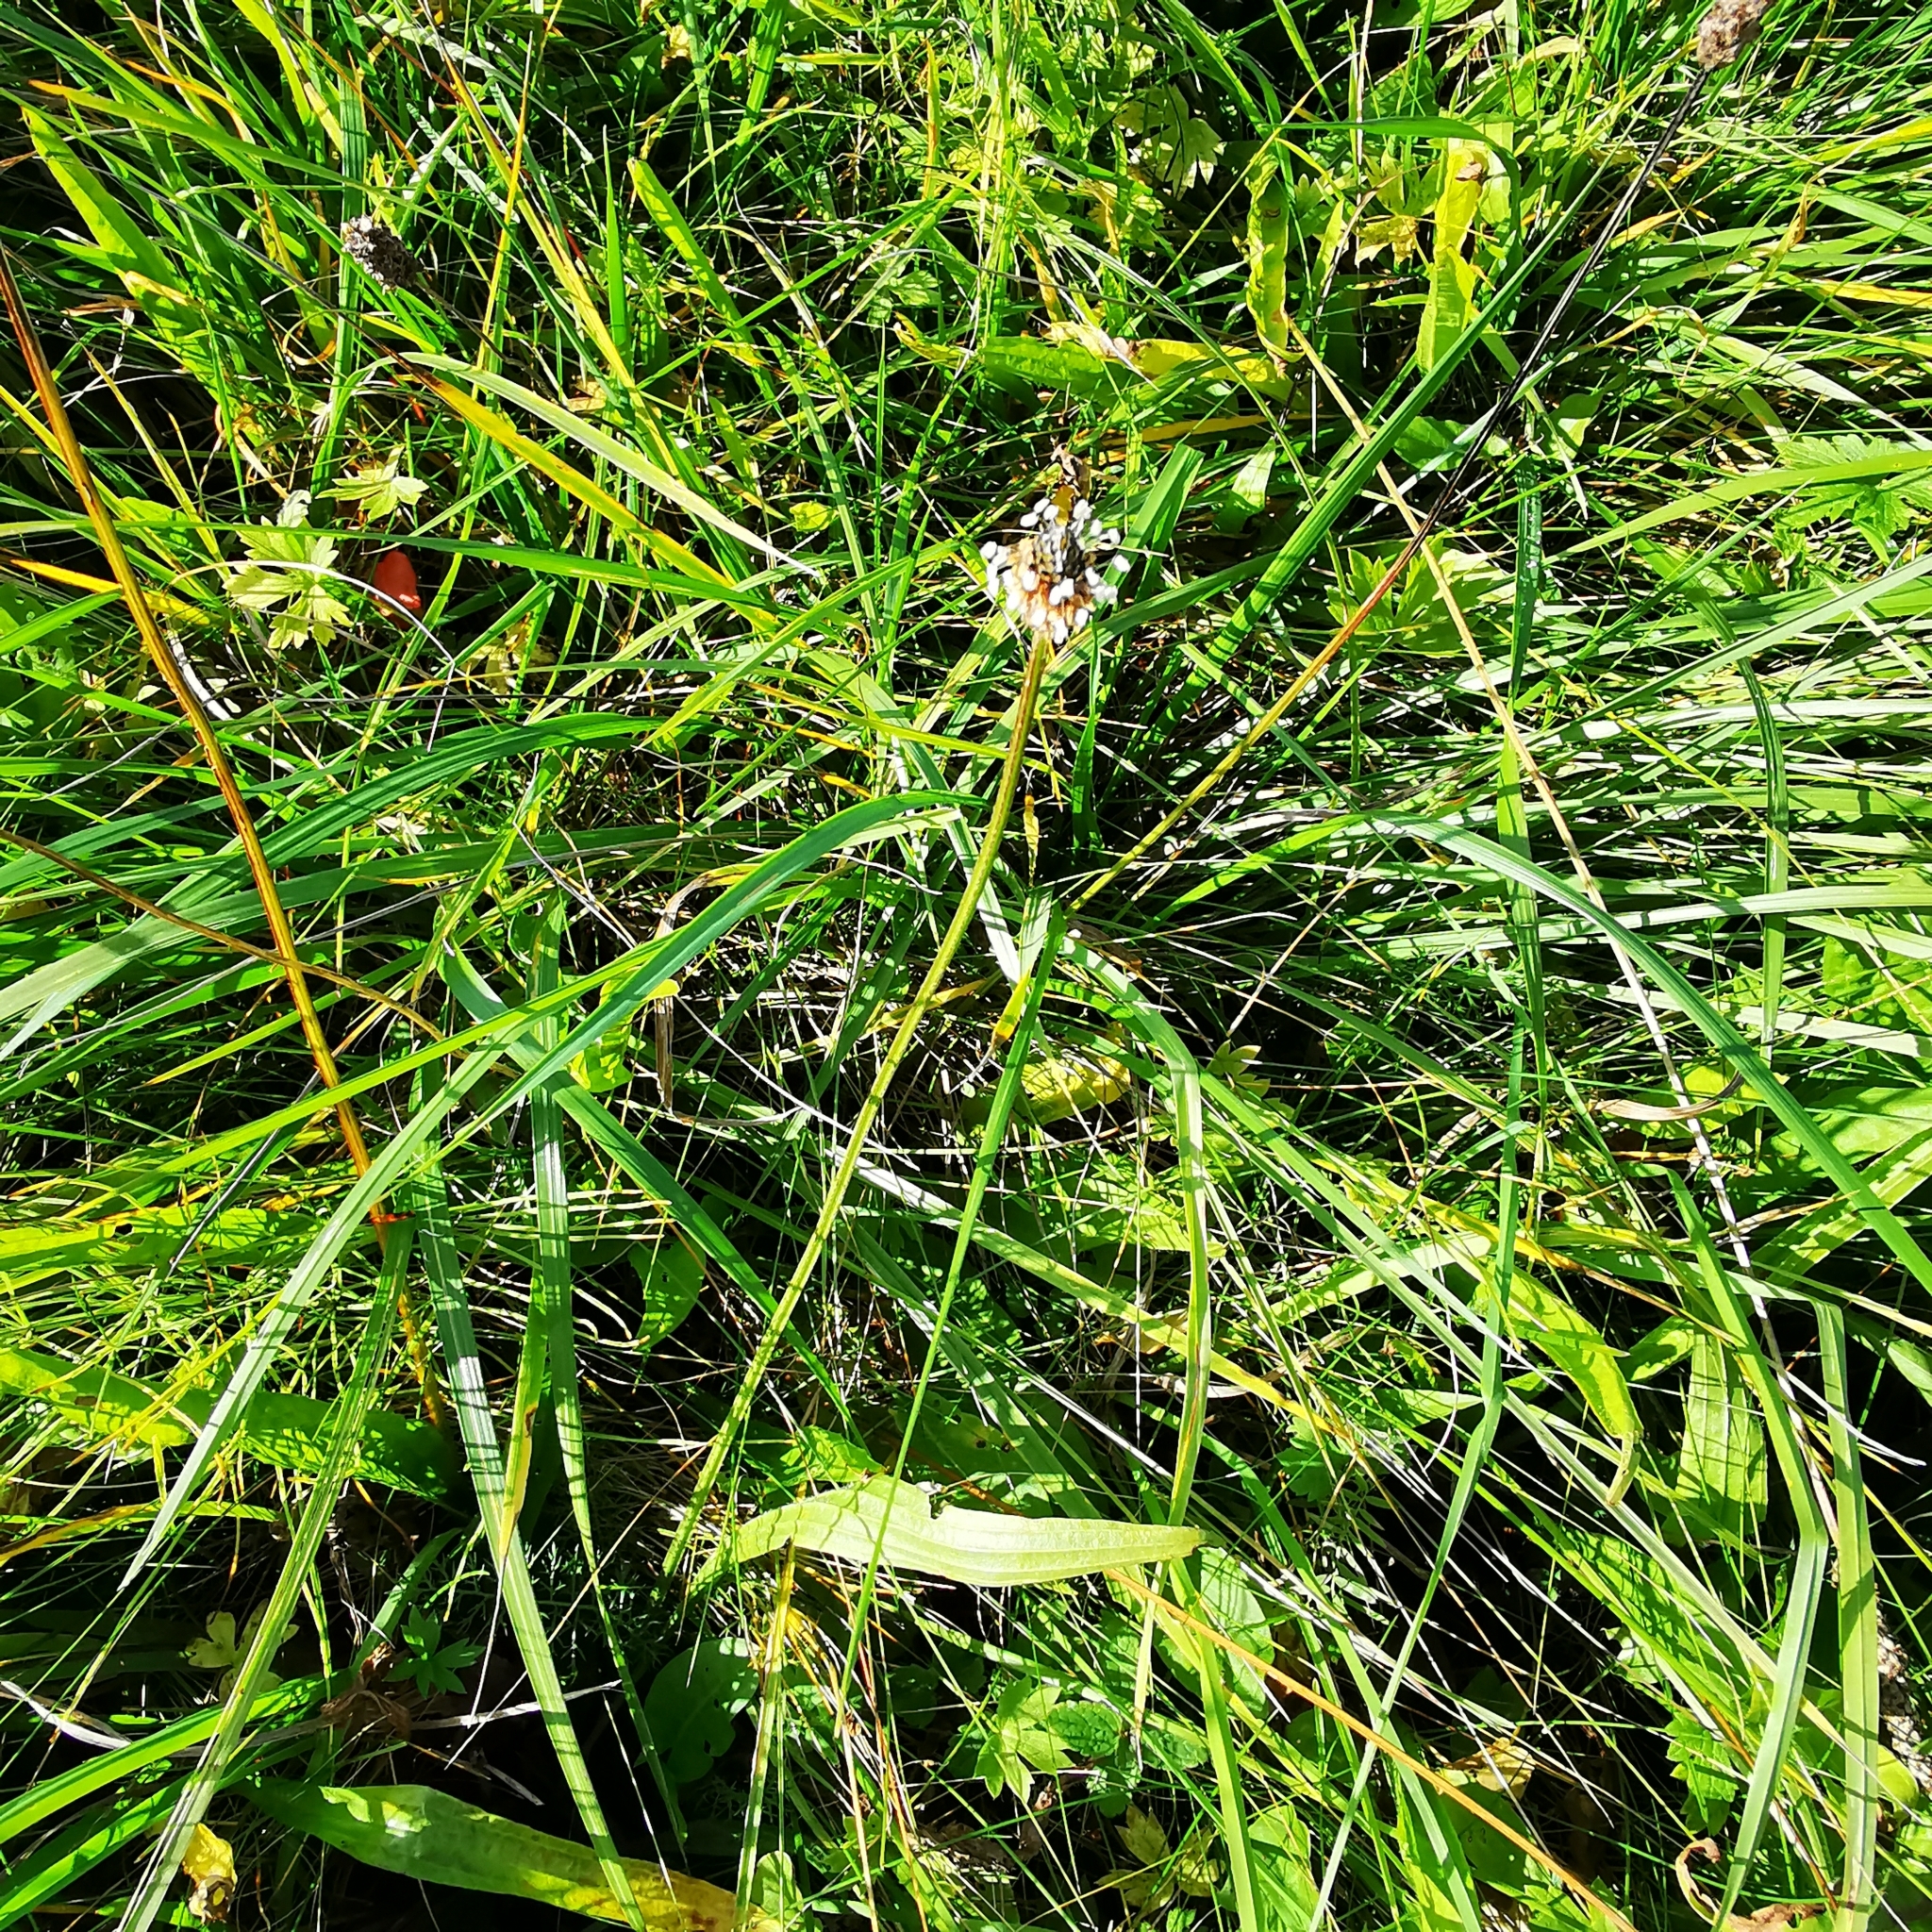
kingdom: Plantae
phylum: Tracheophyta
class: Magnoliopsida
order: Lamiales
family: Plantaginaceae
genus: Plantago
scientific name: Plantago lanceolata
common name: Ribwort plantain
